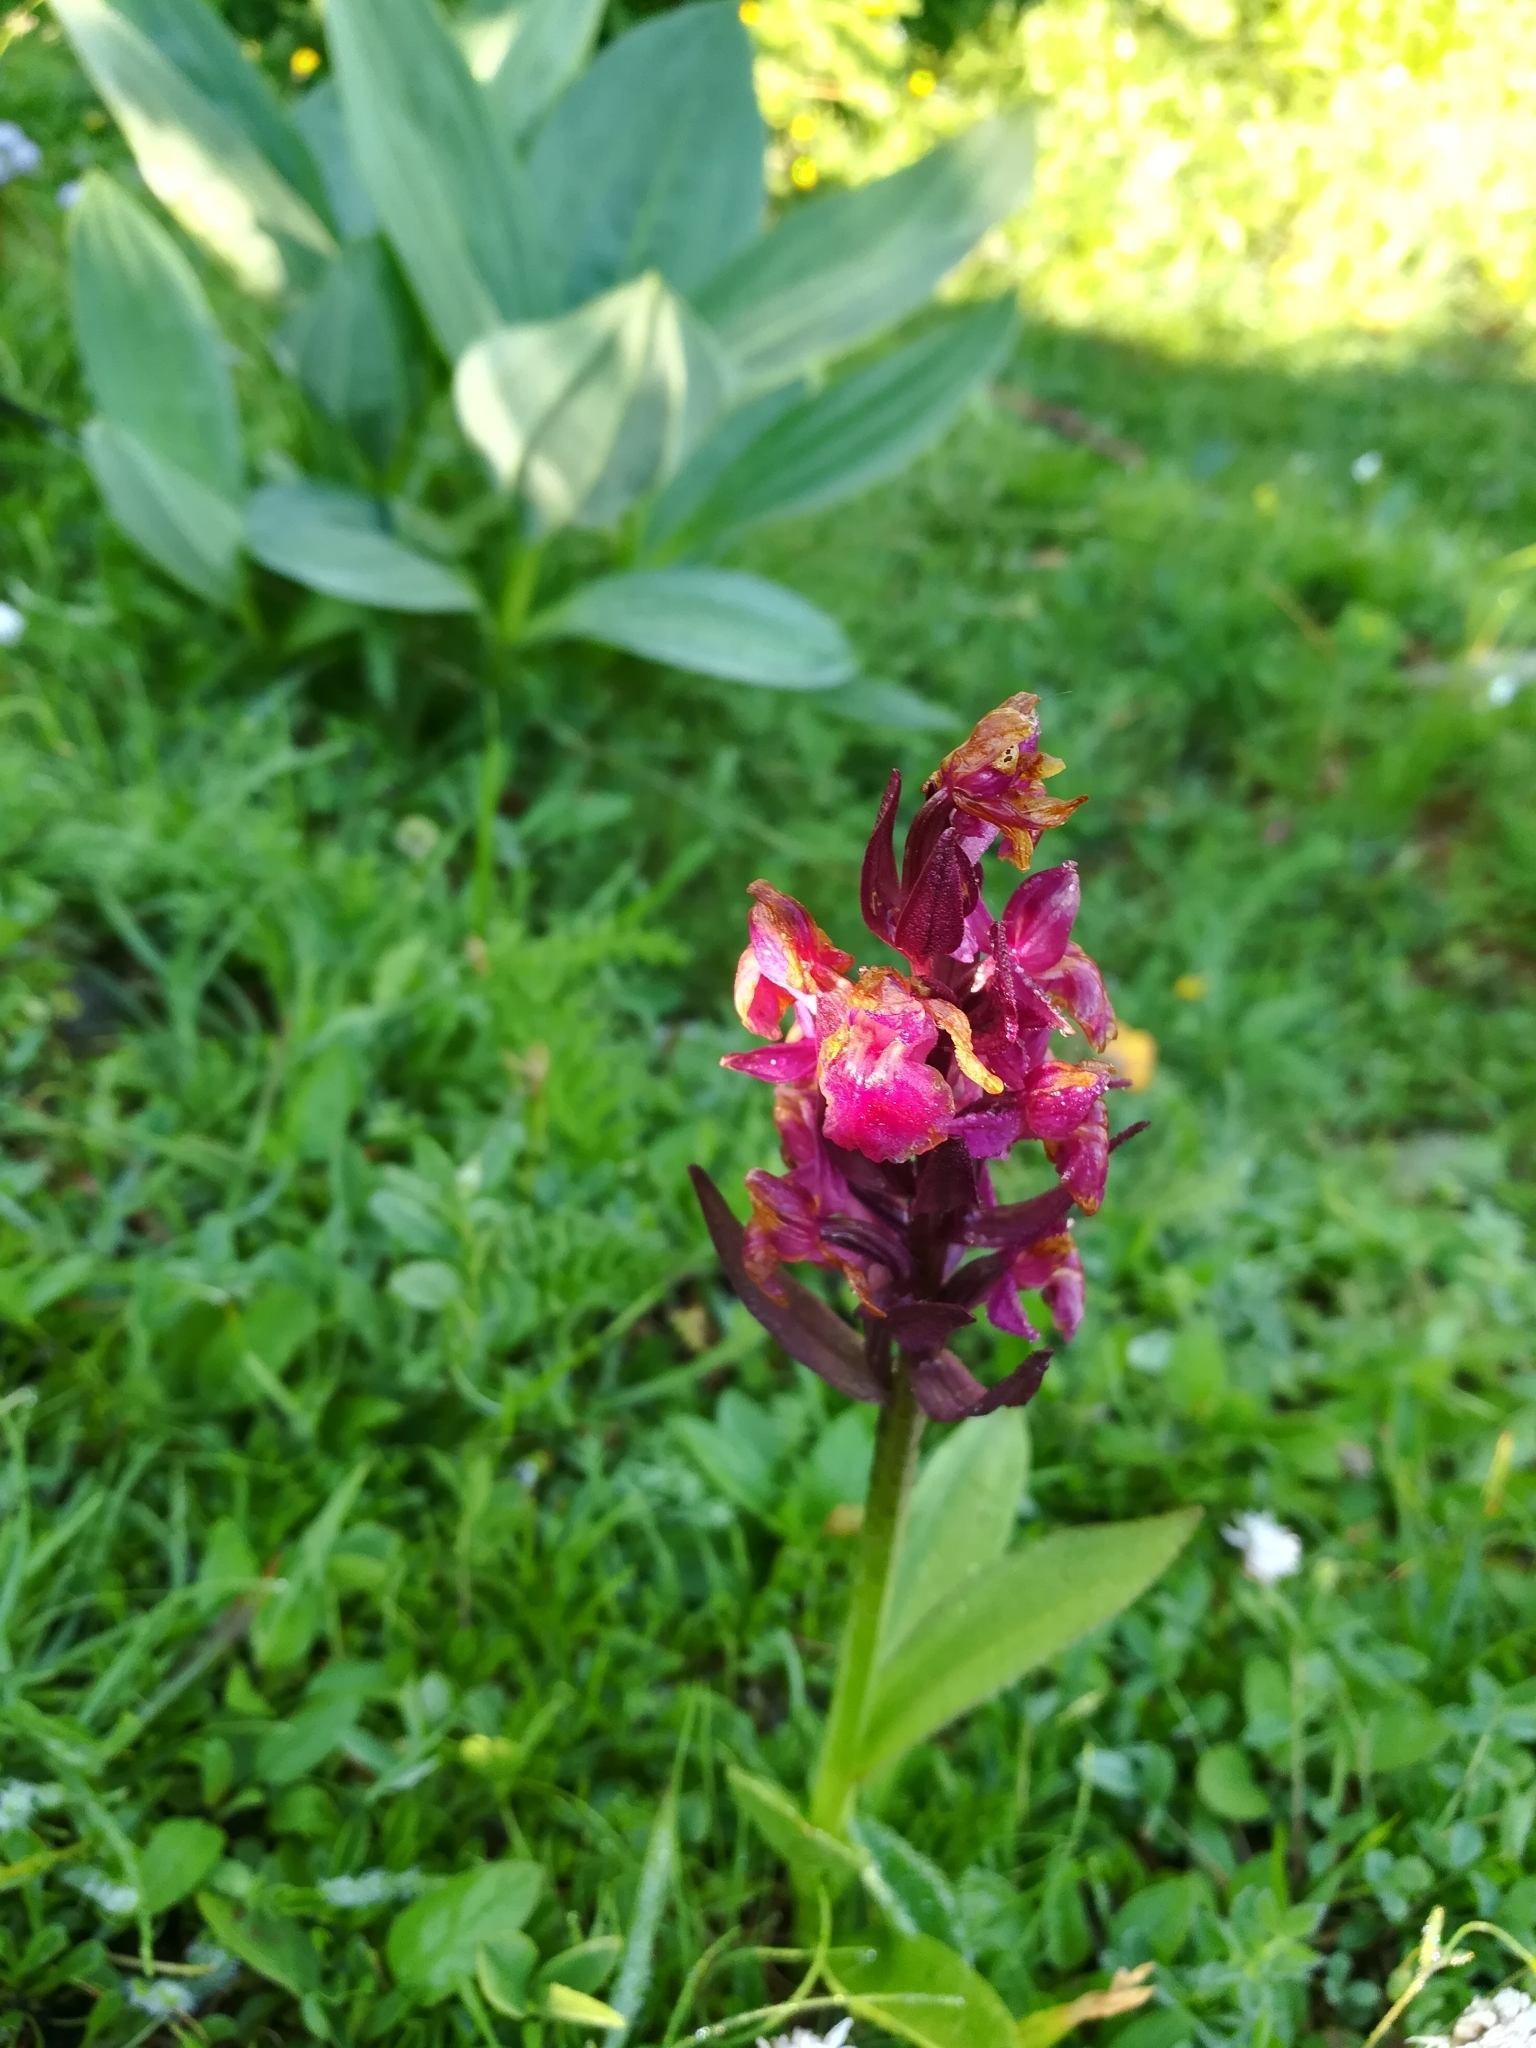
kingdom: Plantae
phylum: Tracheophyta
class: Liliopsida
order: Asparagales
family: Orchidaceae
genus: Dactylorhiza
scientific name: Dactylorhiza sambucina
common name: Elder-flowered orchid
